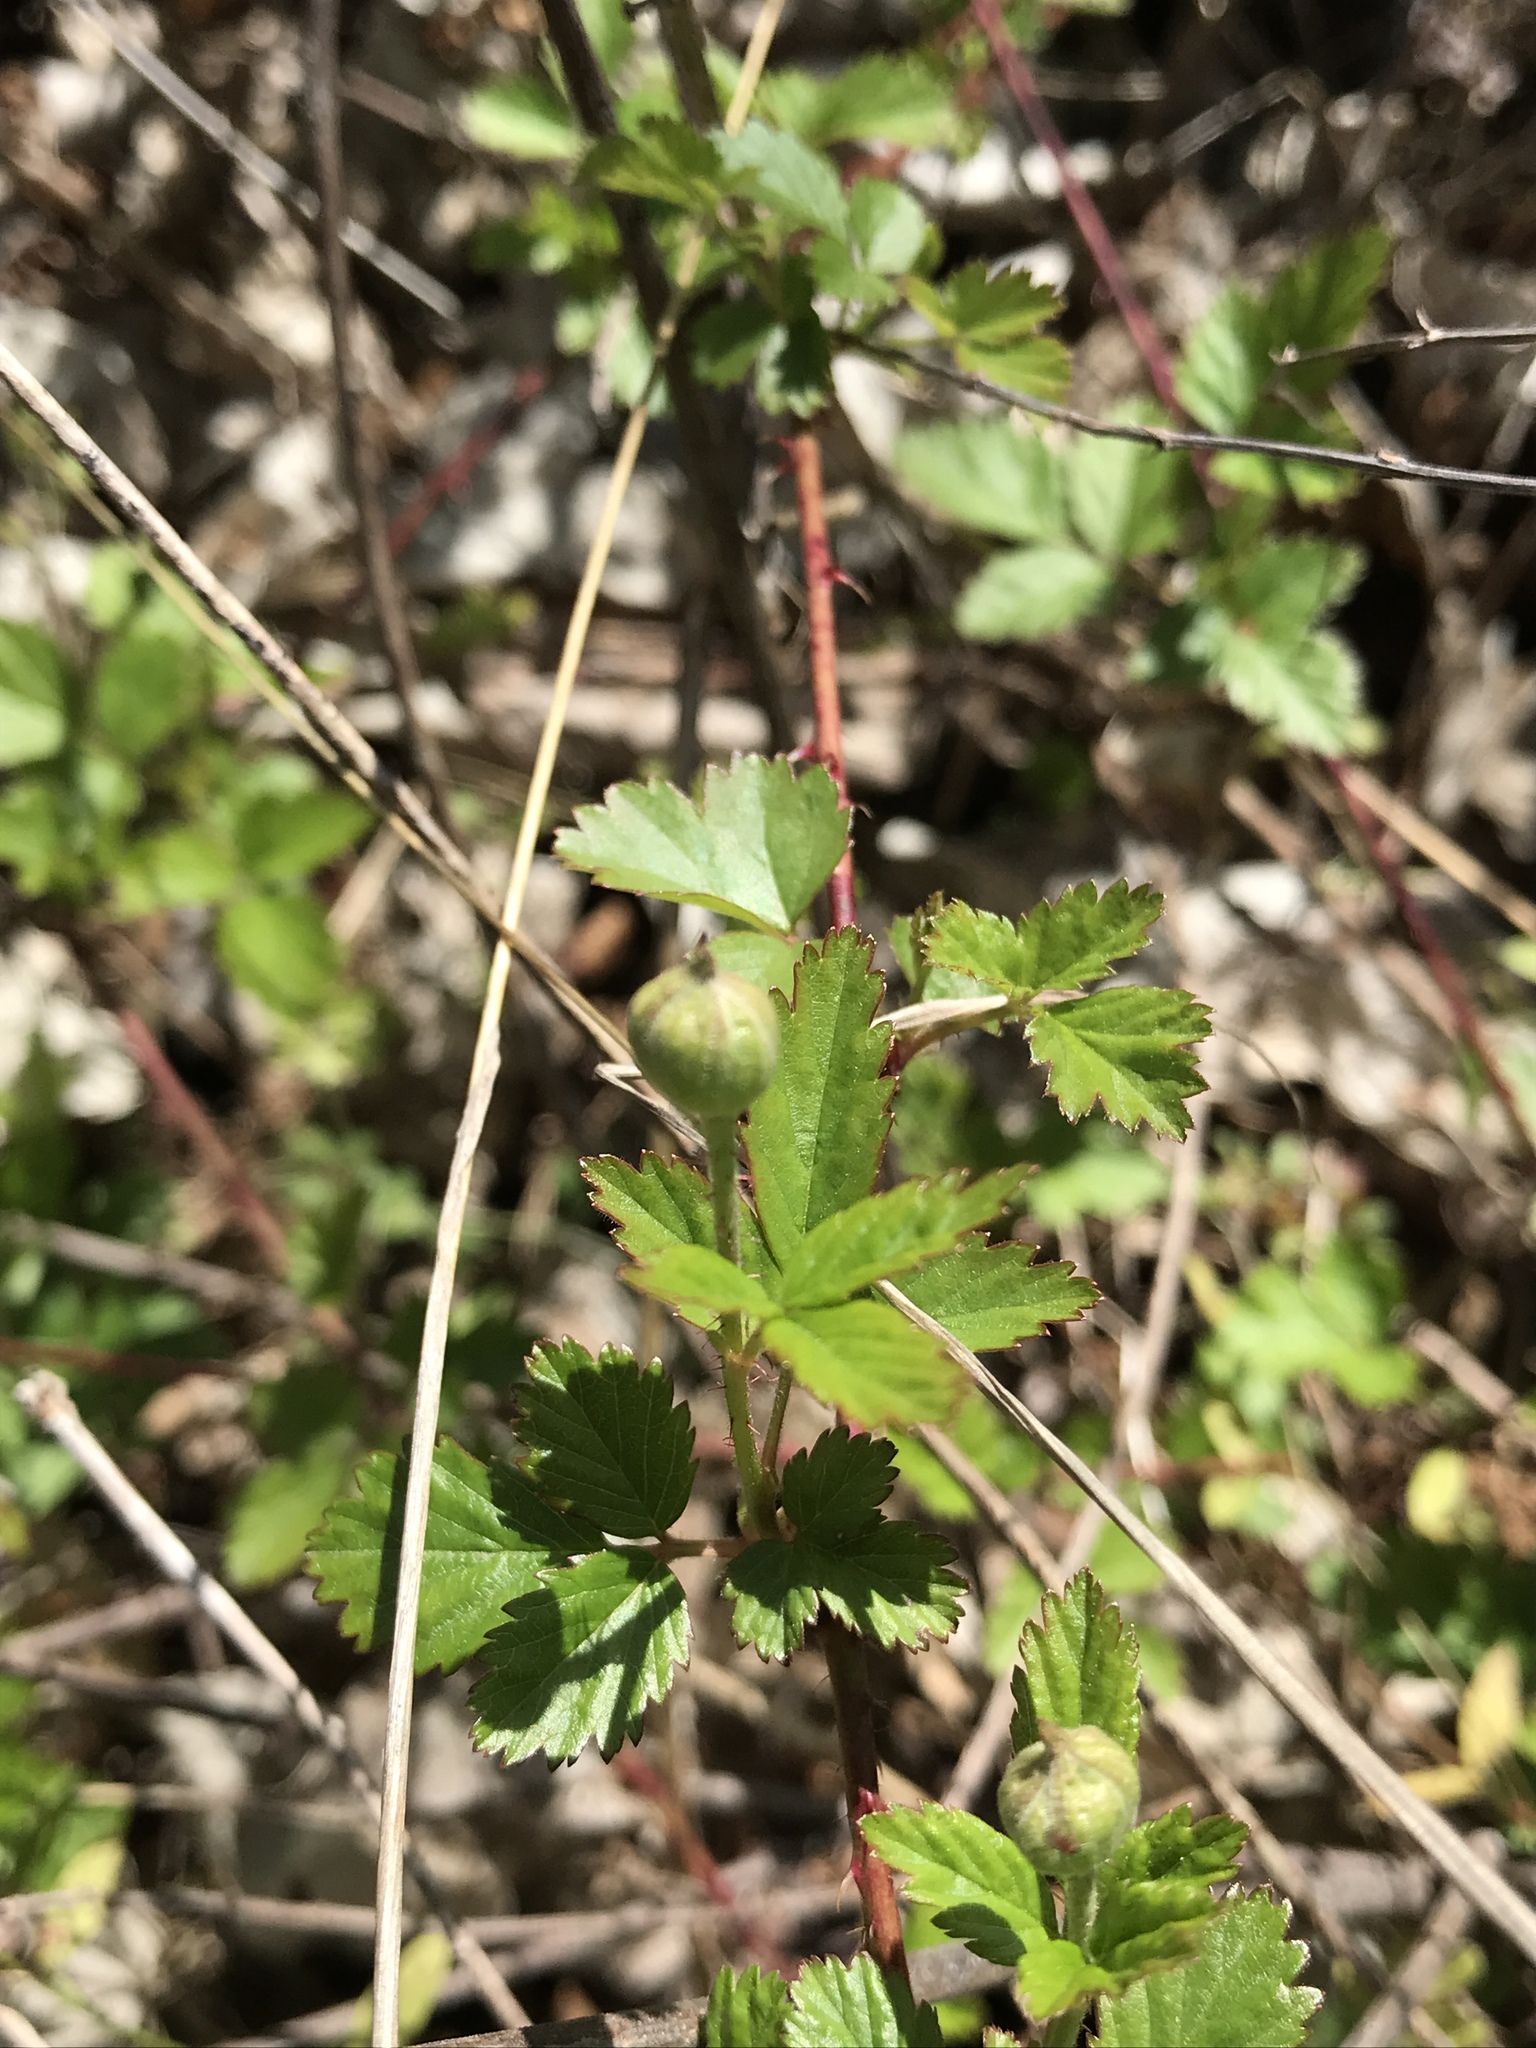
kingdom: Plantae
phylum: Tracheophyta
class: Magnoliopsida
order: Rosales
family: Rosaceae
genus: Rubus
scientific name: Rubus trivialis
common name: Southern dewberry
